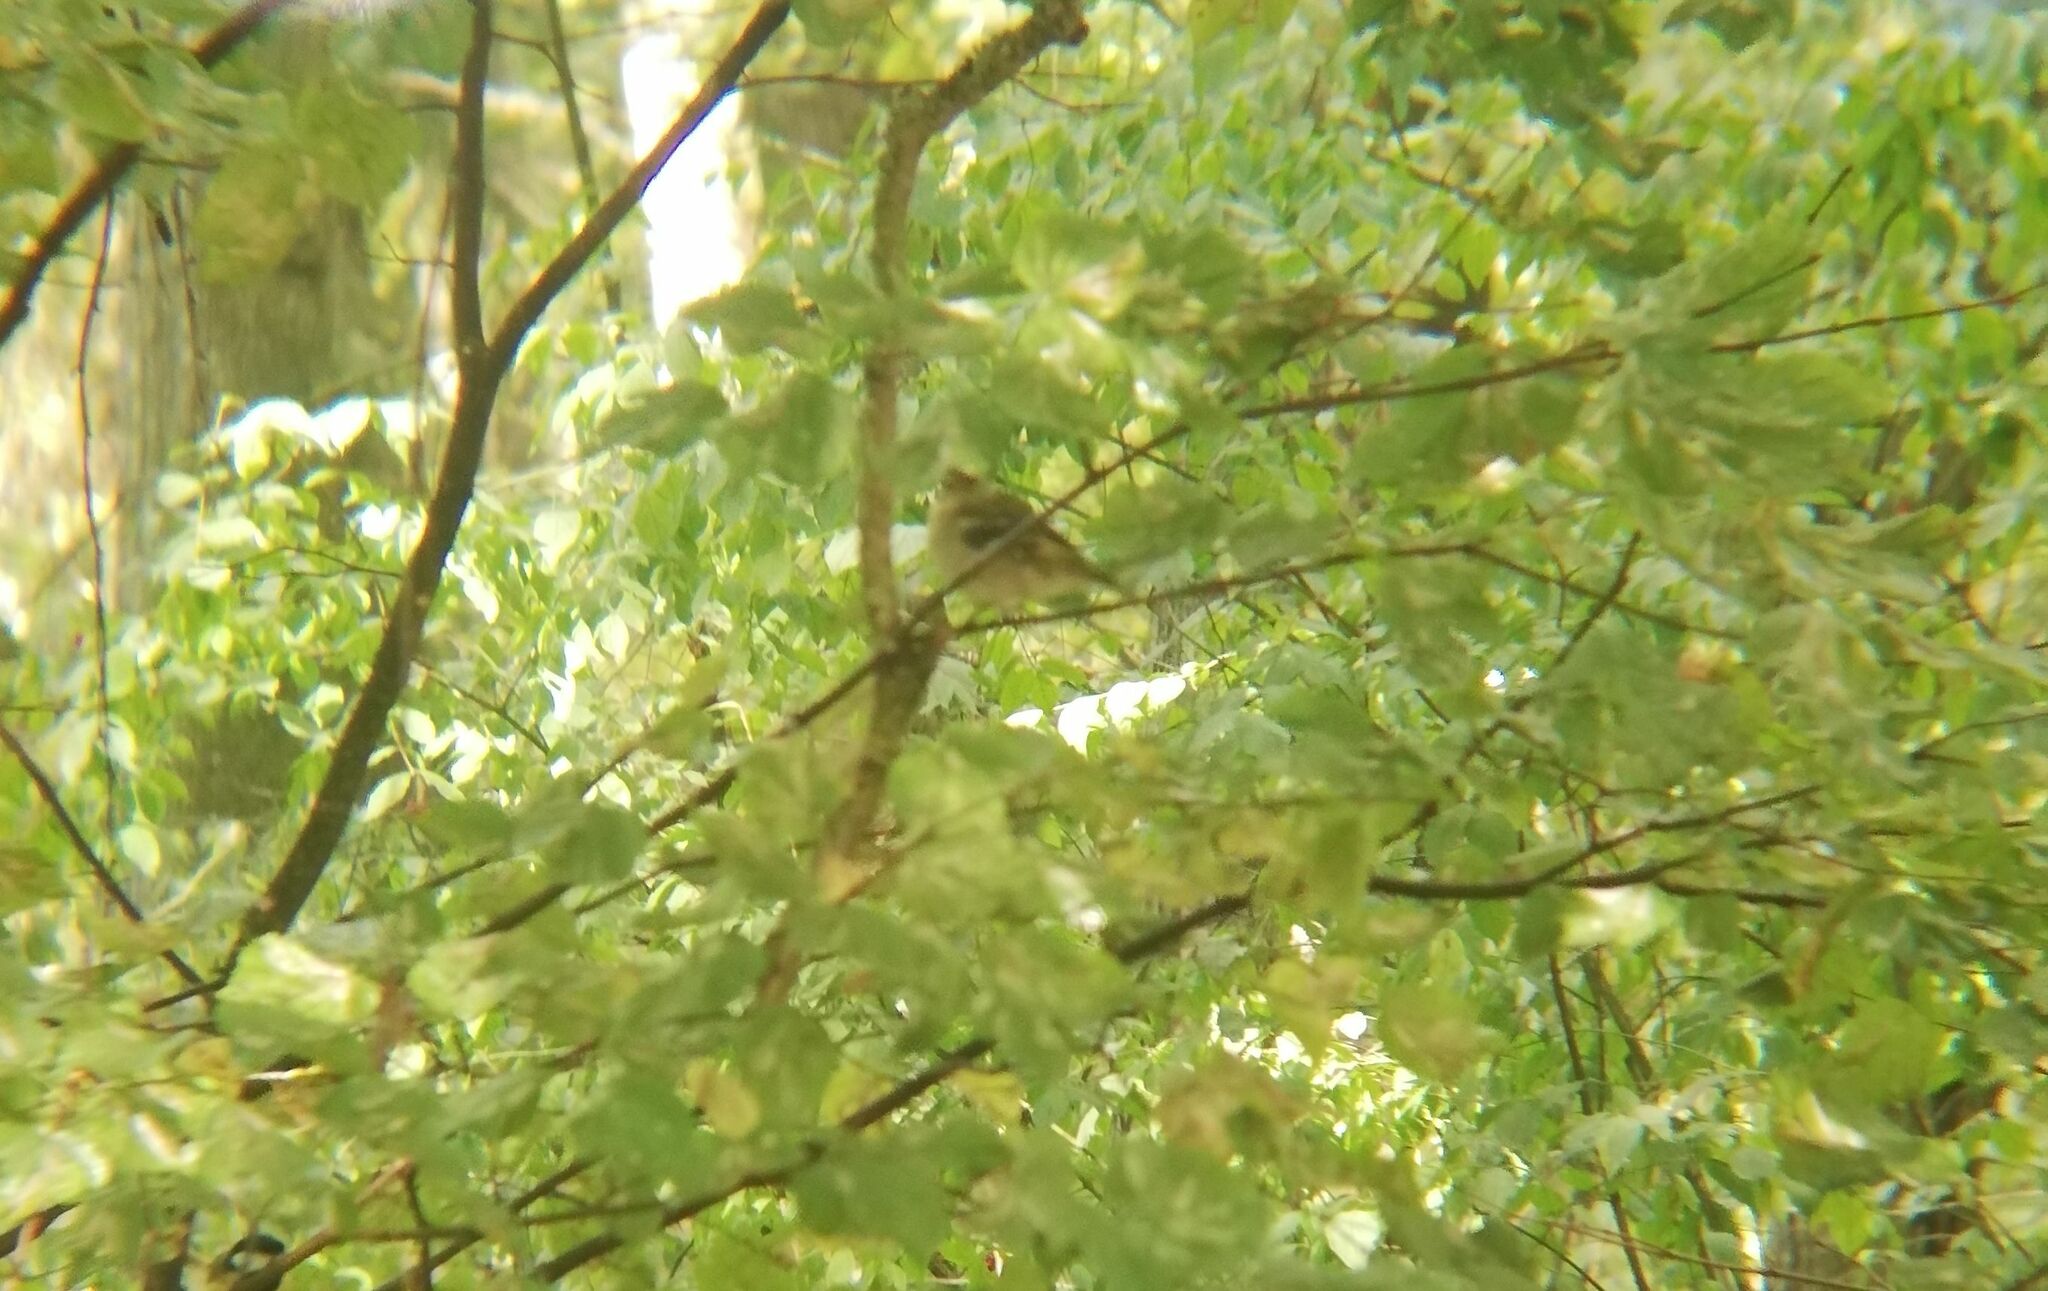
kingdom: Animalia
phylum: Chordata
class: Aves
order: Passeriformes
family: Fringillidae
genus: Fringilla
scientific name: Fringilla coelebs
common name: Common chaffinch
